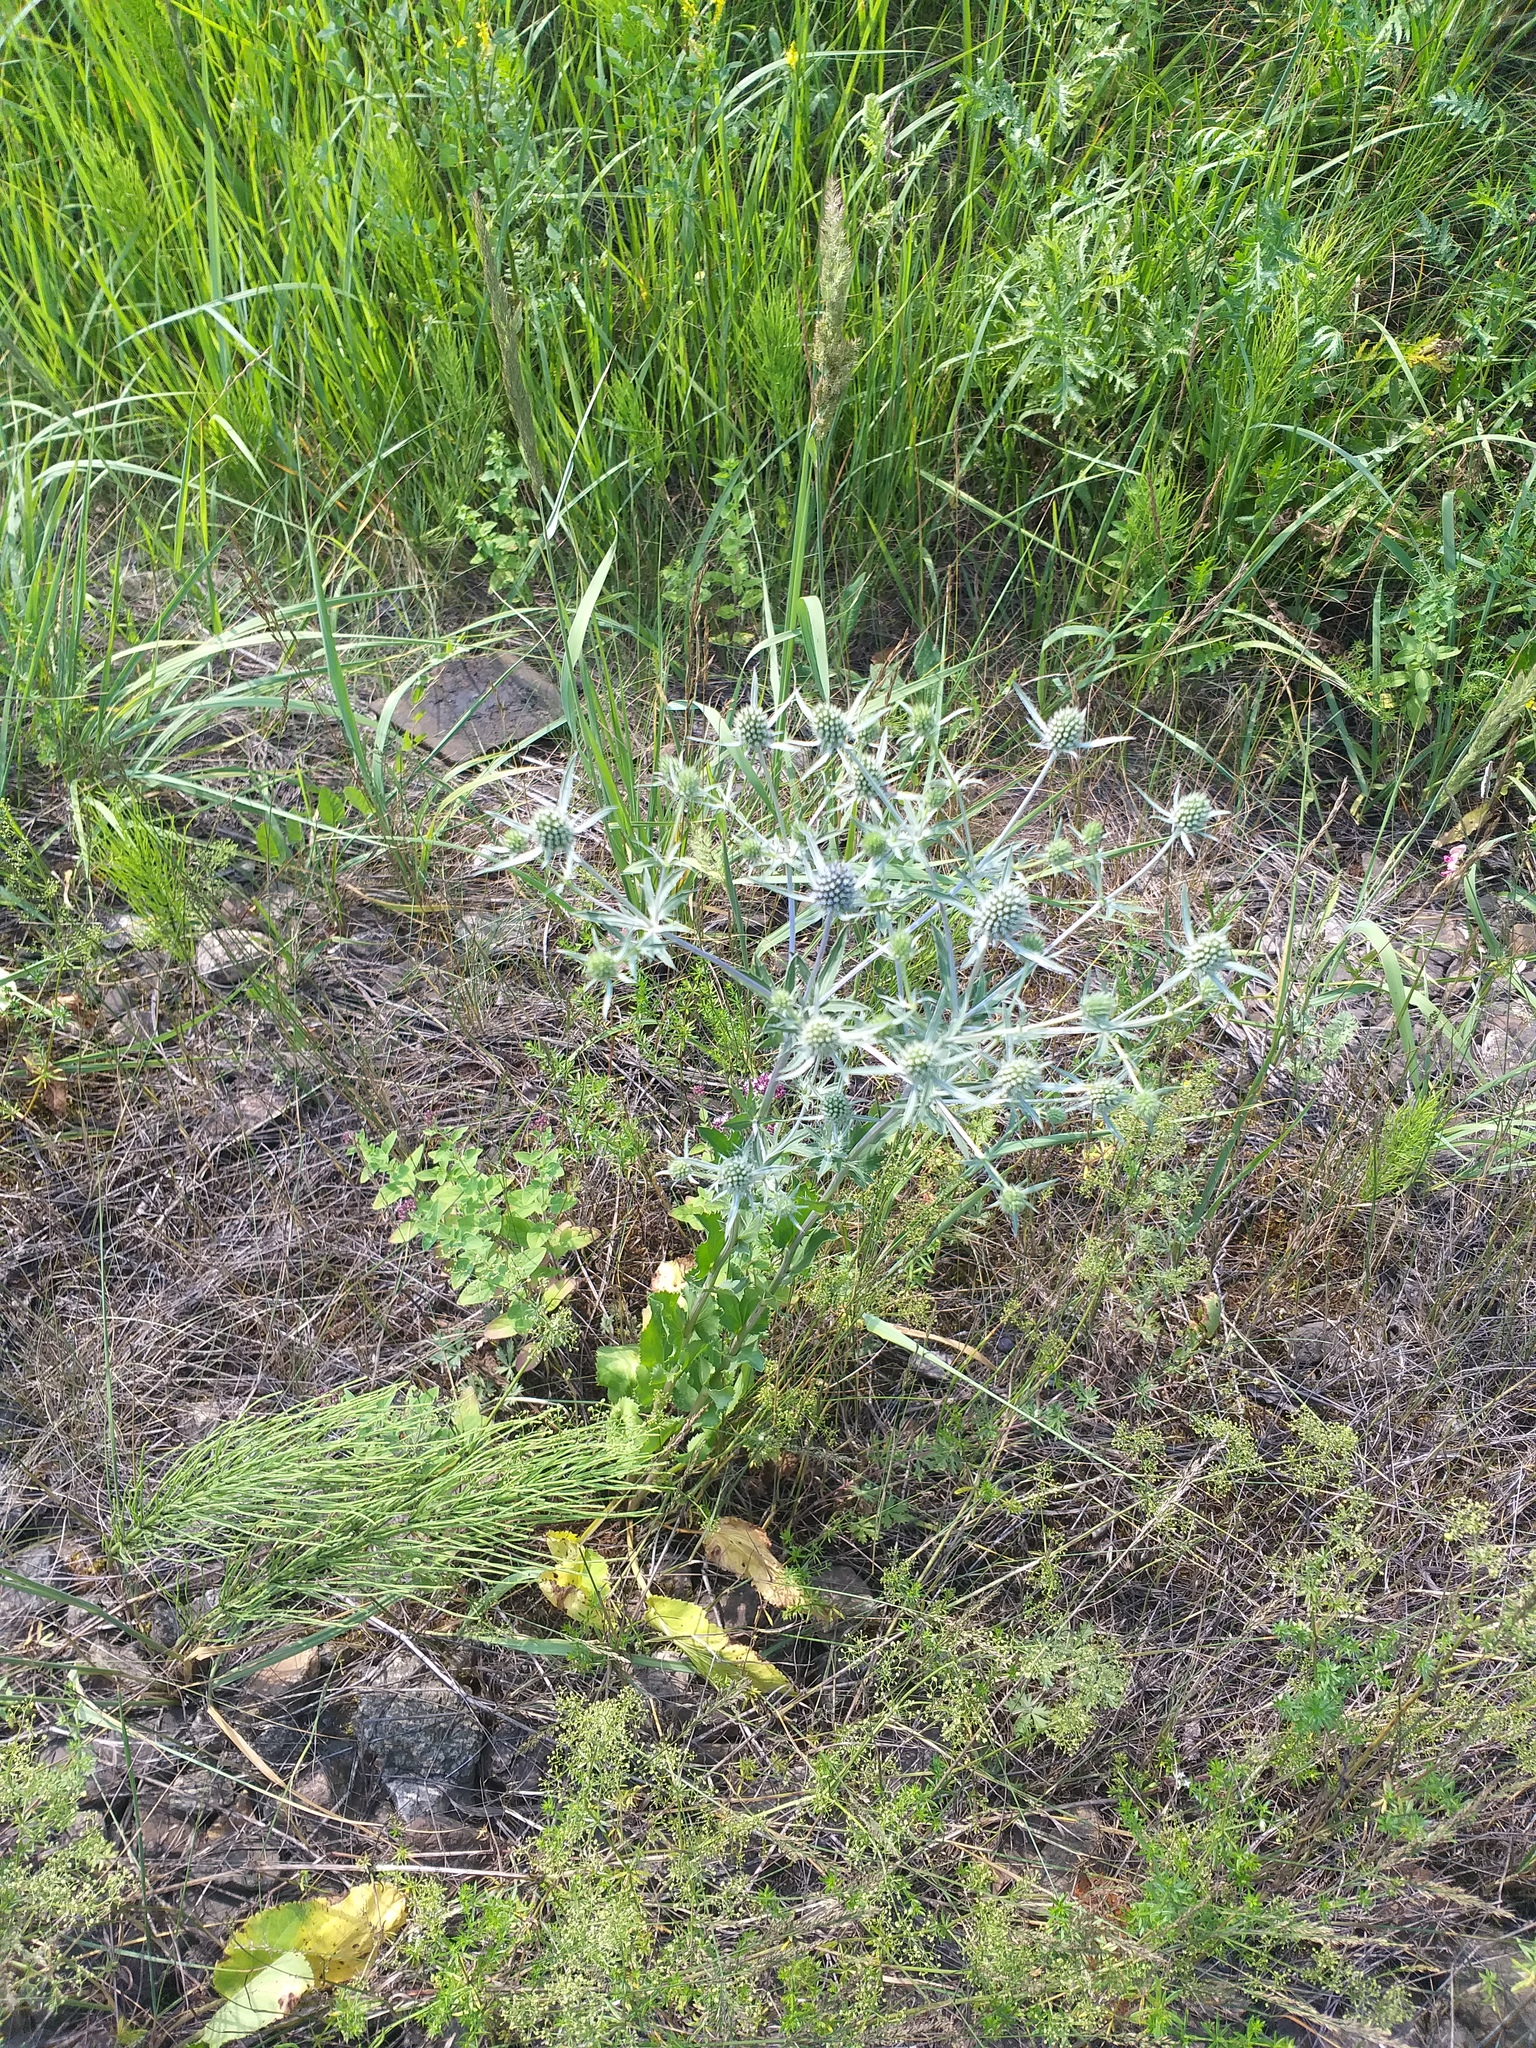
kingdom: Plantae
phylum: Tracheophyta
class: Magnoliopsida
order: Apiales
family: Apiaceae
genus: Eryngium
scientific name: Eryngium planum
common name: Blue eryngo
